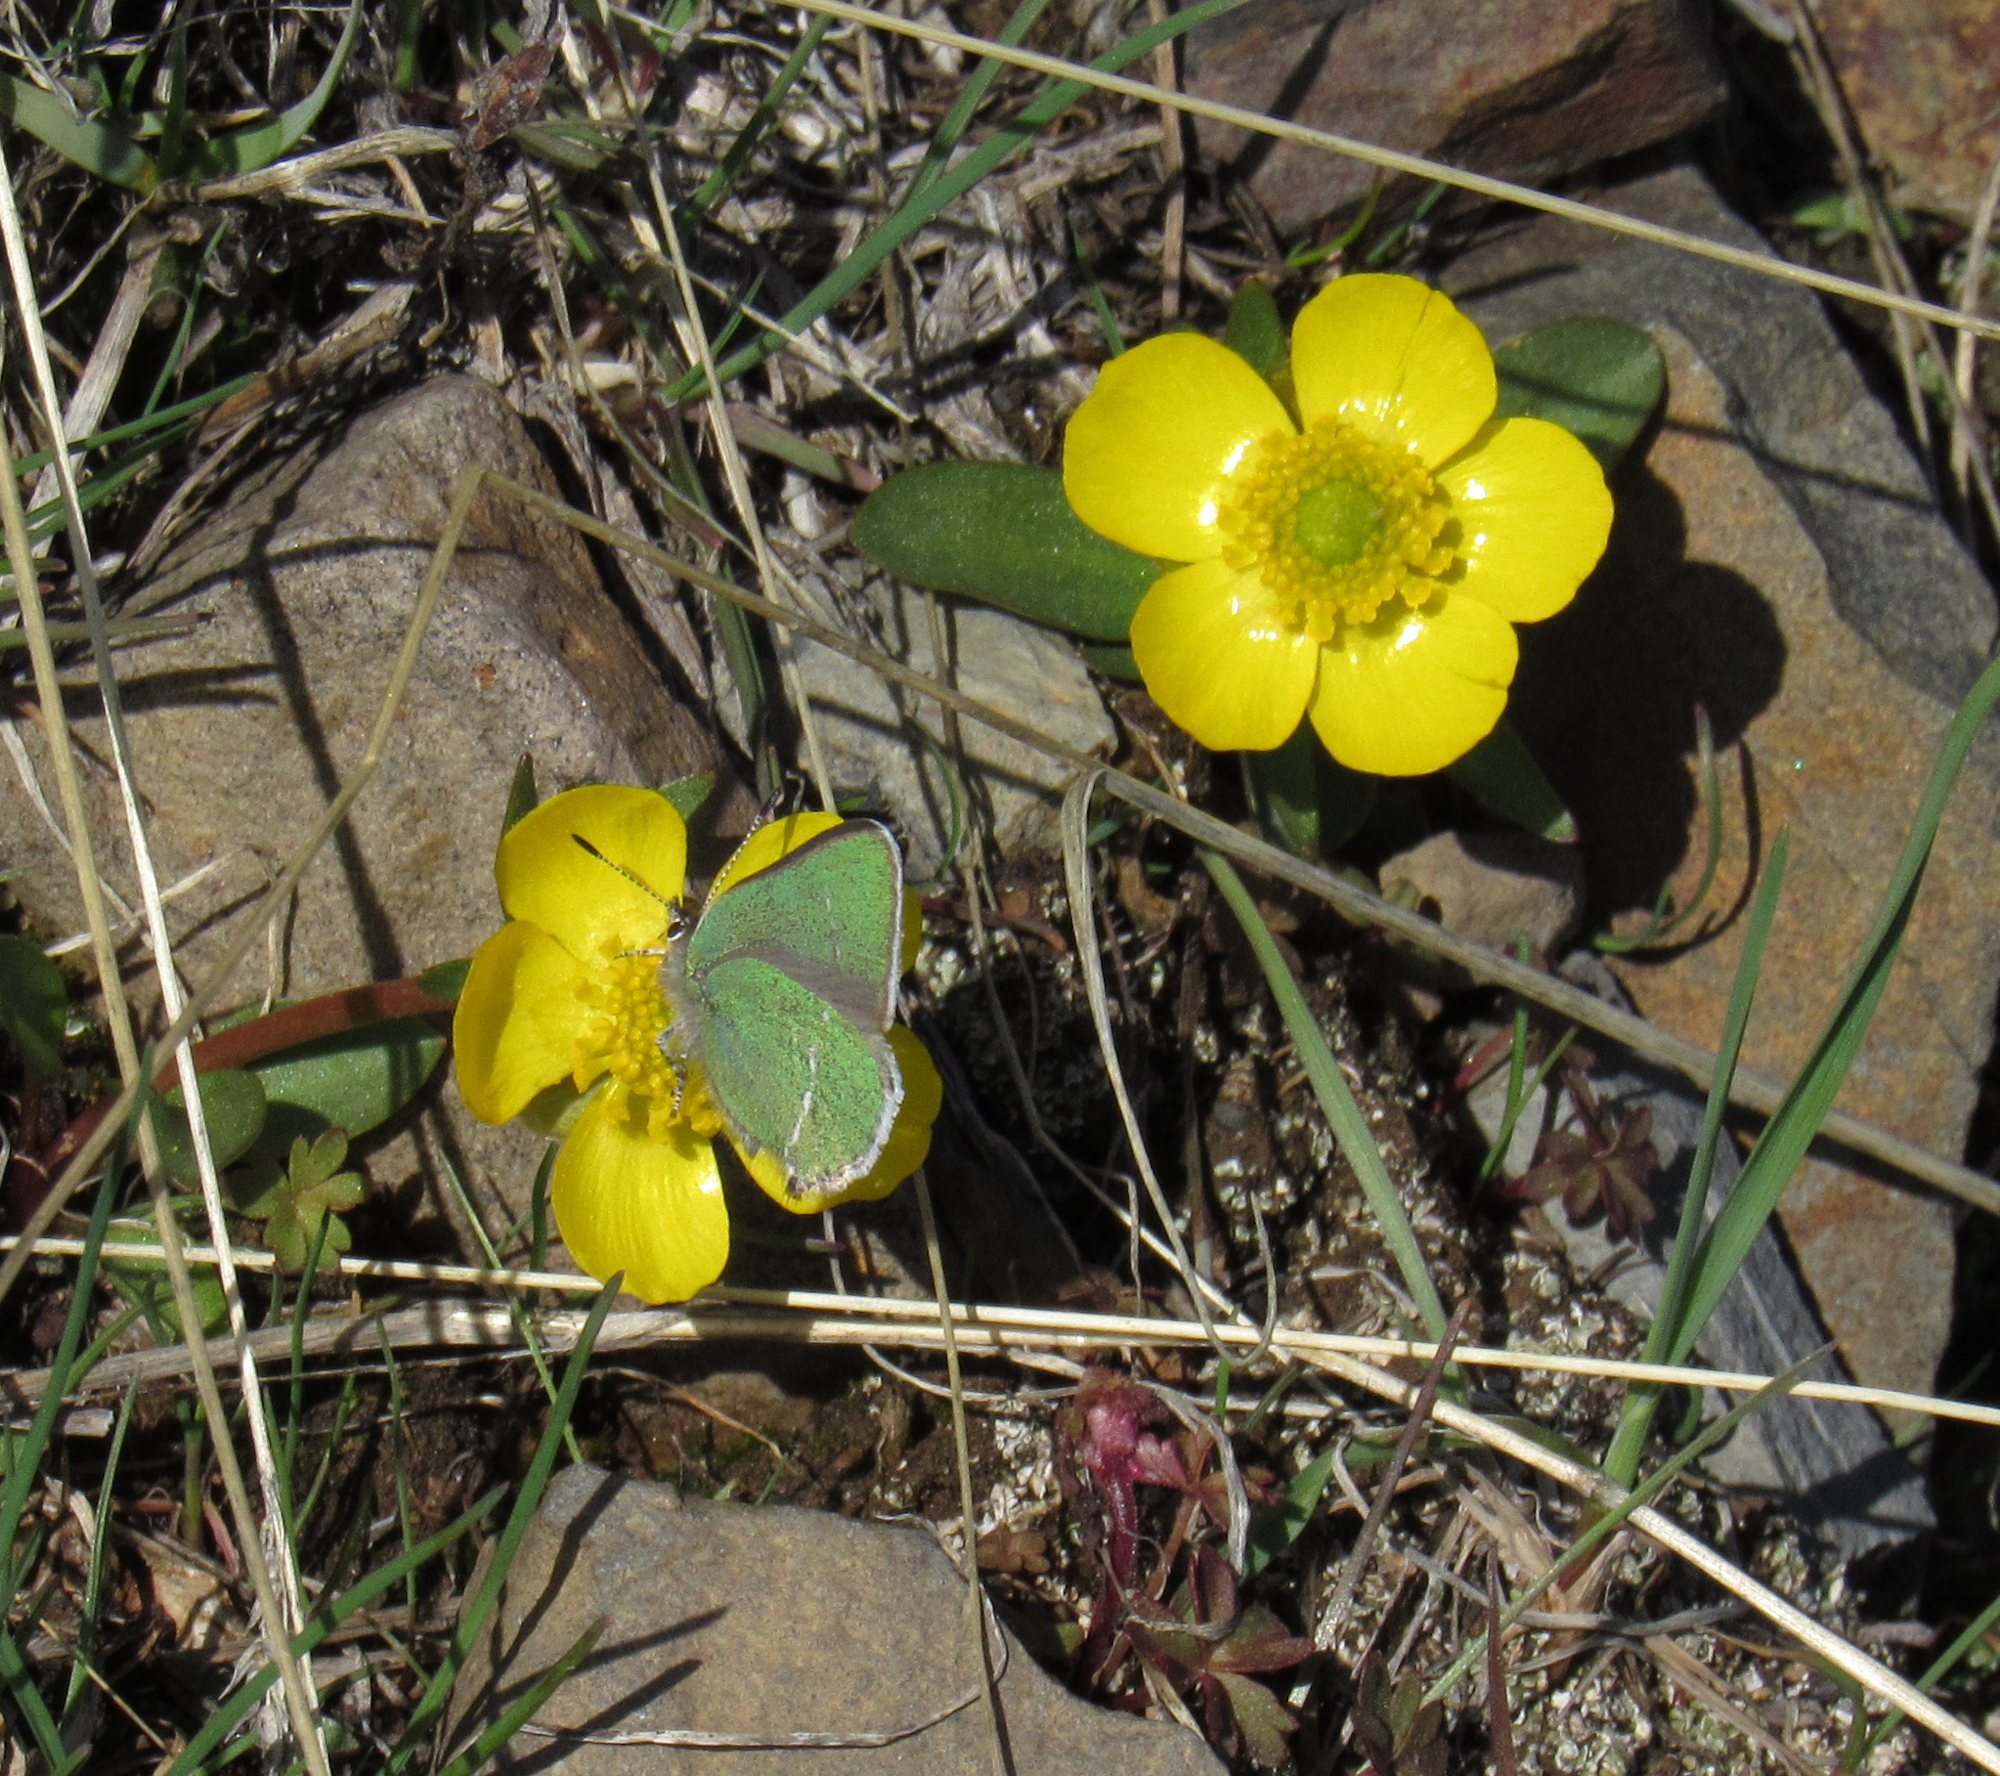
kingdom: Plantae
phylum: Tracheophyta
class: Magnoliopsida
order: Ranunculales
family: Ranunculaceae
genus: Ranunculus
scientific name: Ranunculus glaberrimus
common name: Sagebrush buttercup
